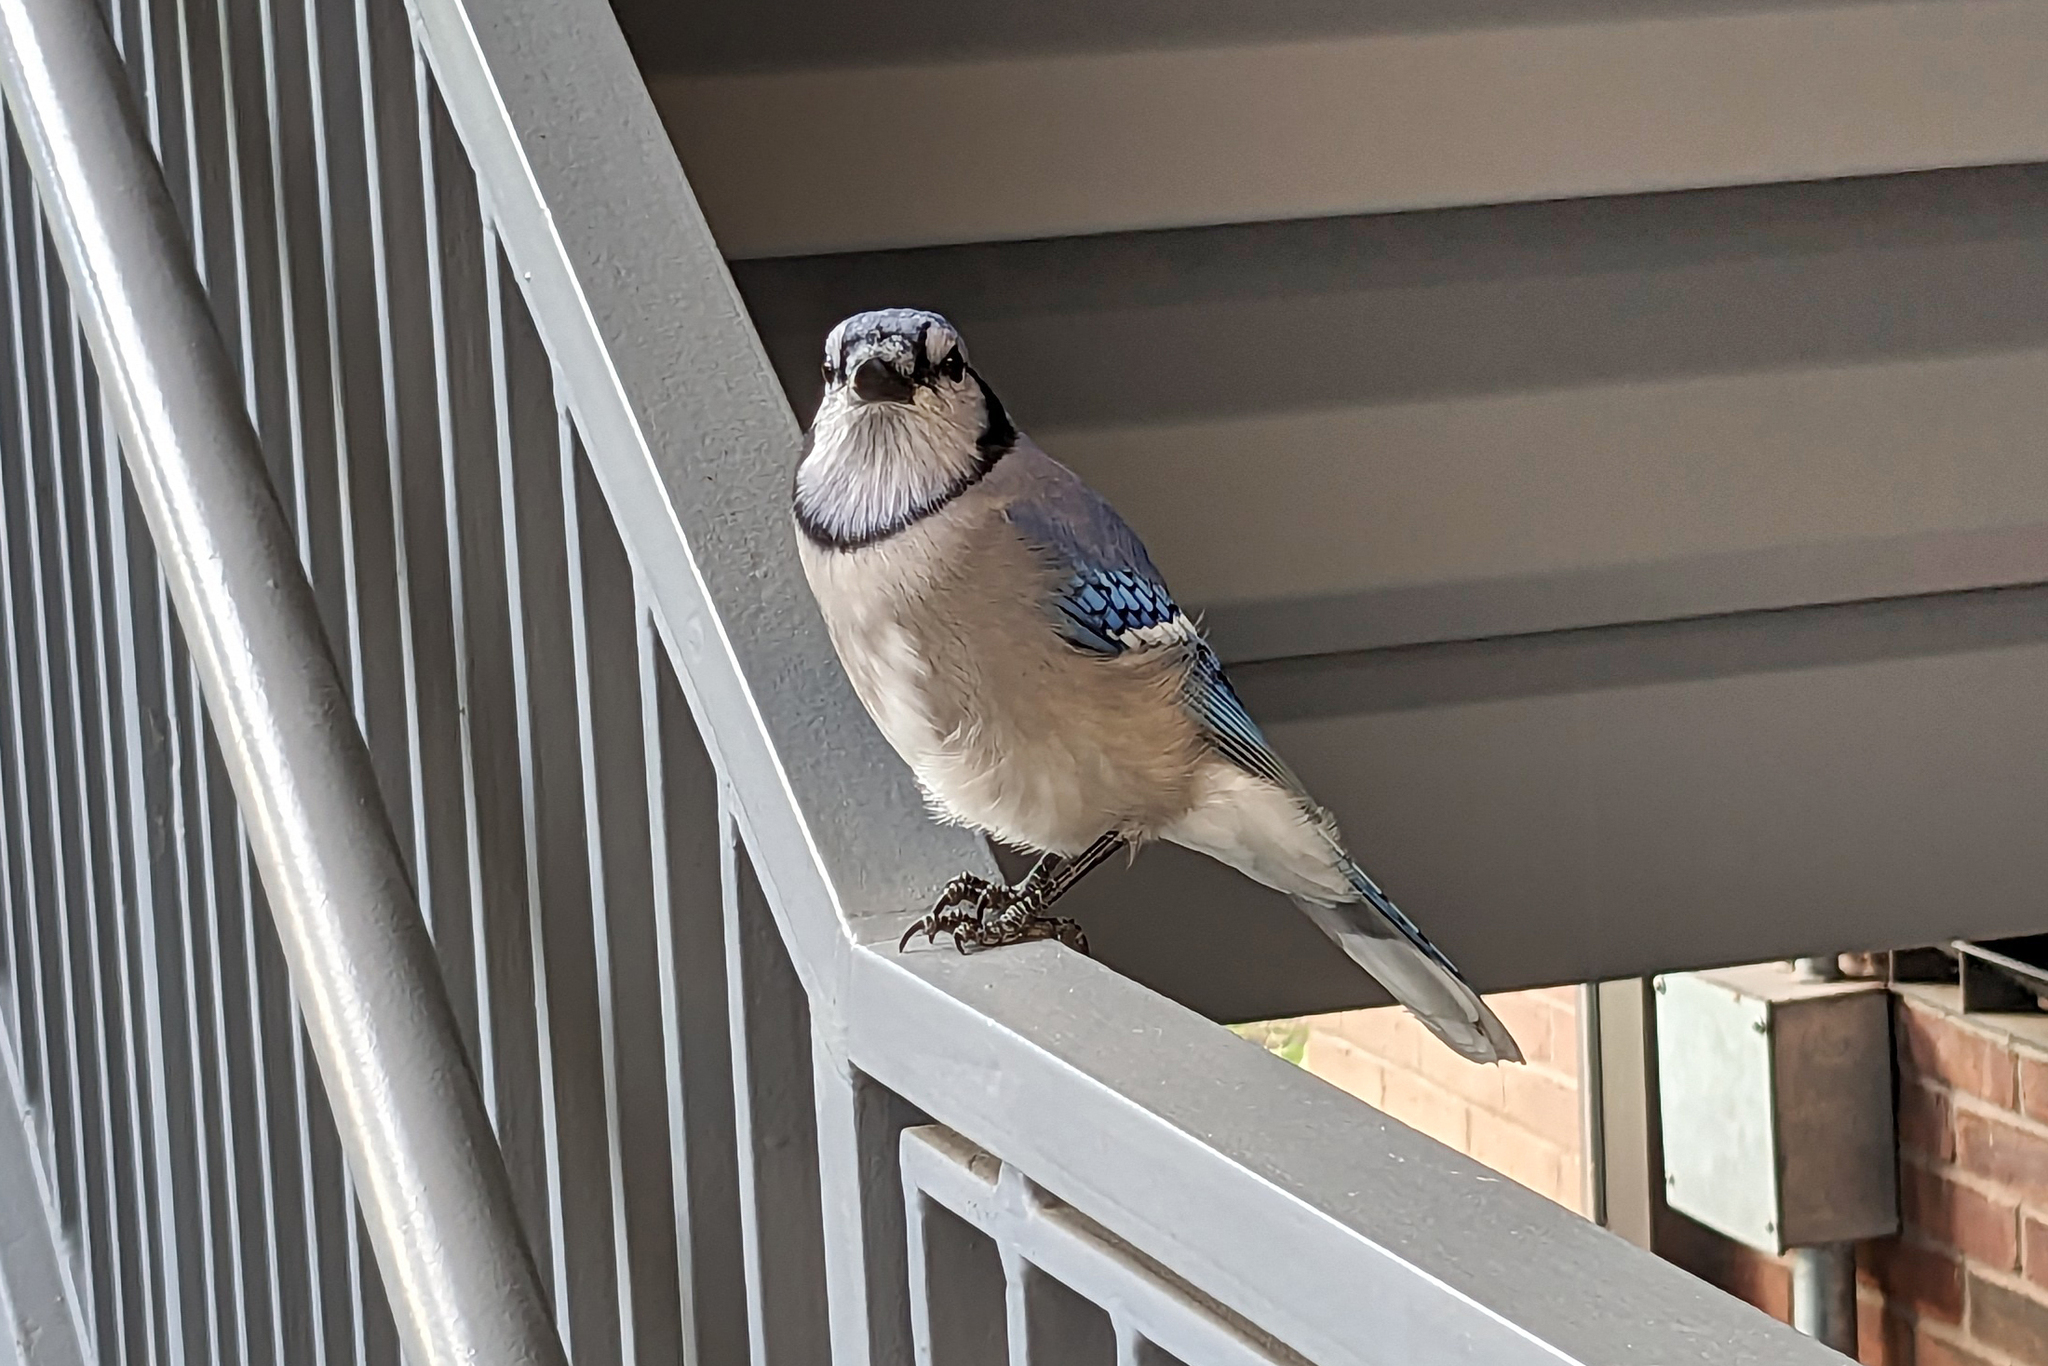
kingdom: Animalia
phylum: Chordata
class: Aves
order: Passeriformes
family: Corvidae
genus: Cyanocitta
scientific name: Cyanocitta cristata
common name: Blue jay
